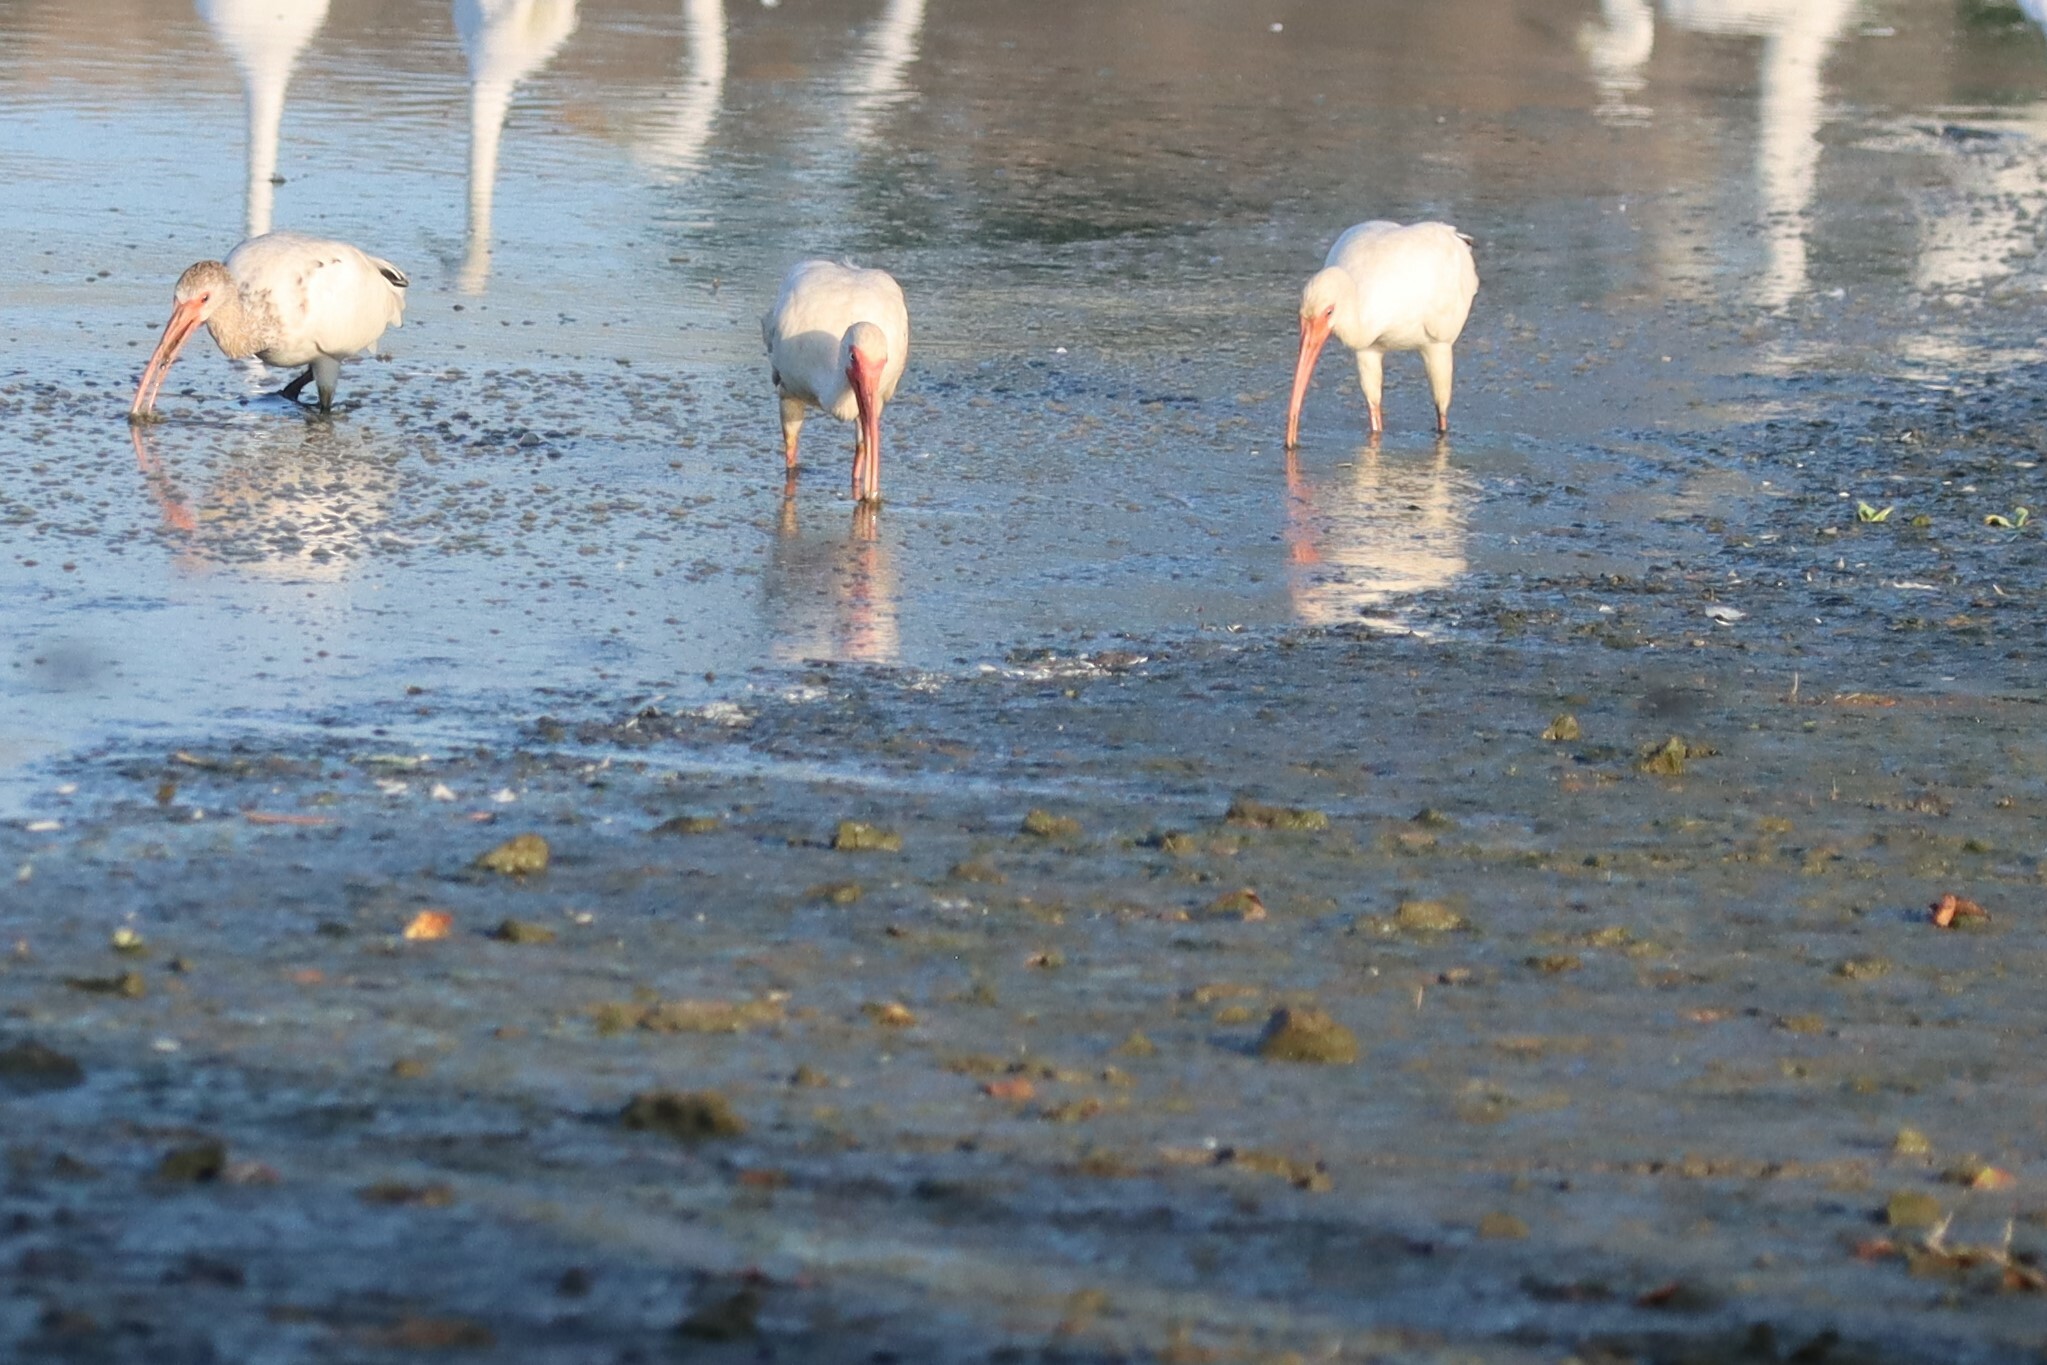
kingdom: Animalia
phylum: Chordata
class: Aves
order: Pelecaniformes
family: Threskiornithidae
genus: Eudocimus
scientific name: Eudocimus albus
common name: White ibis
